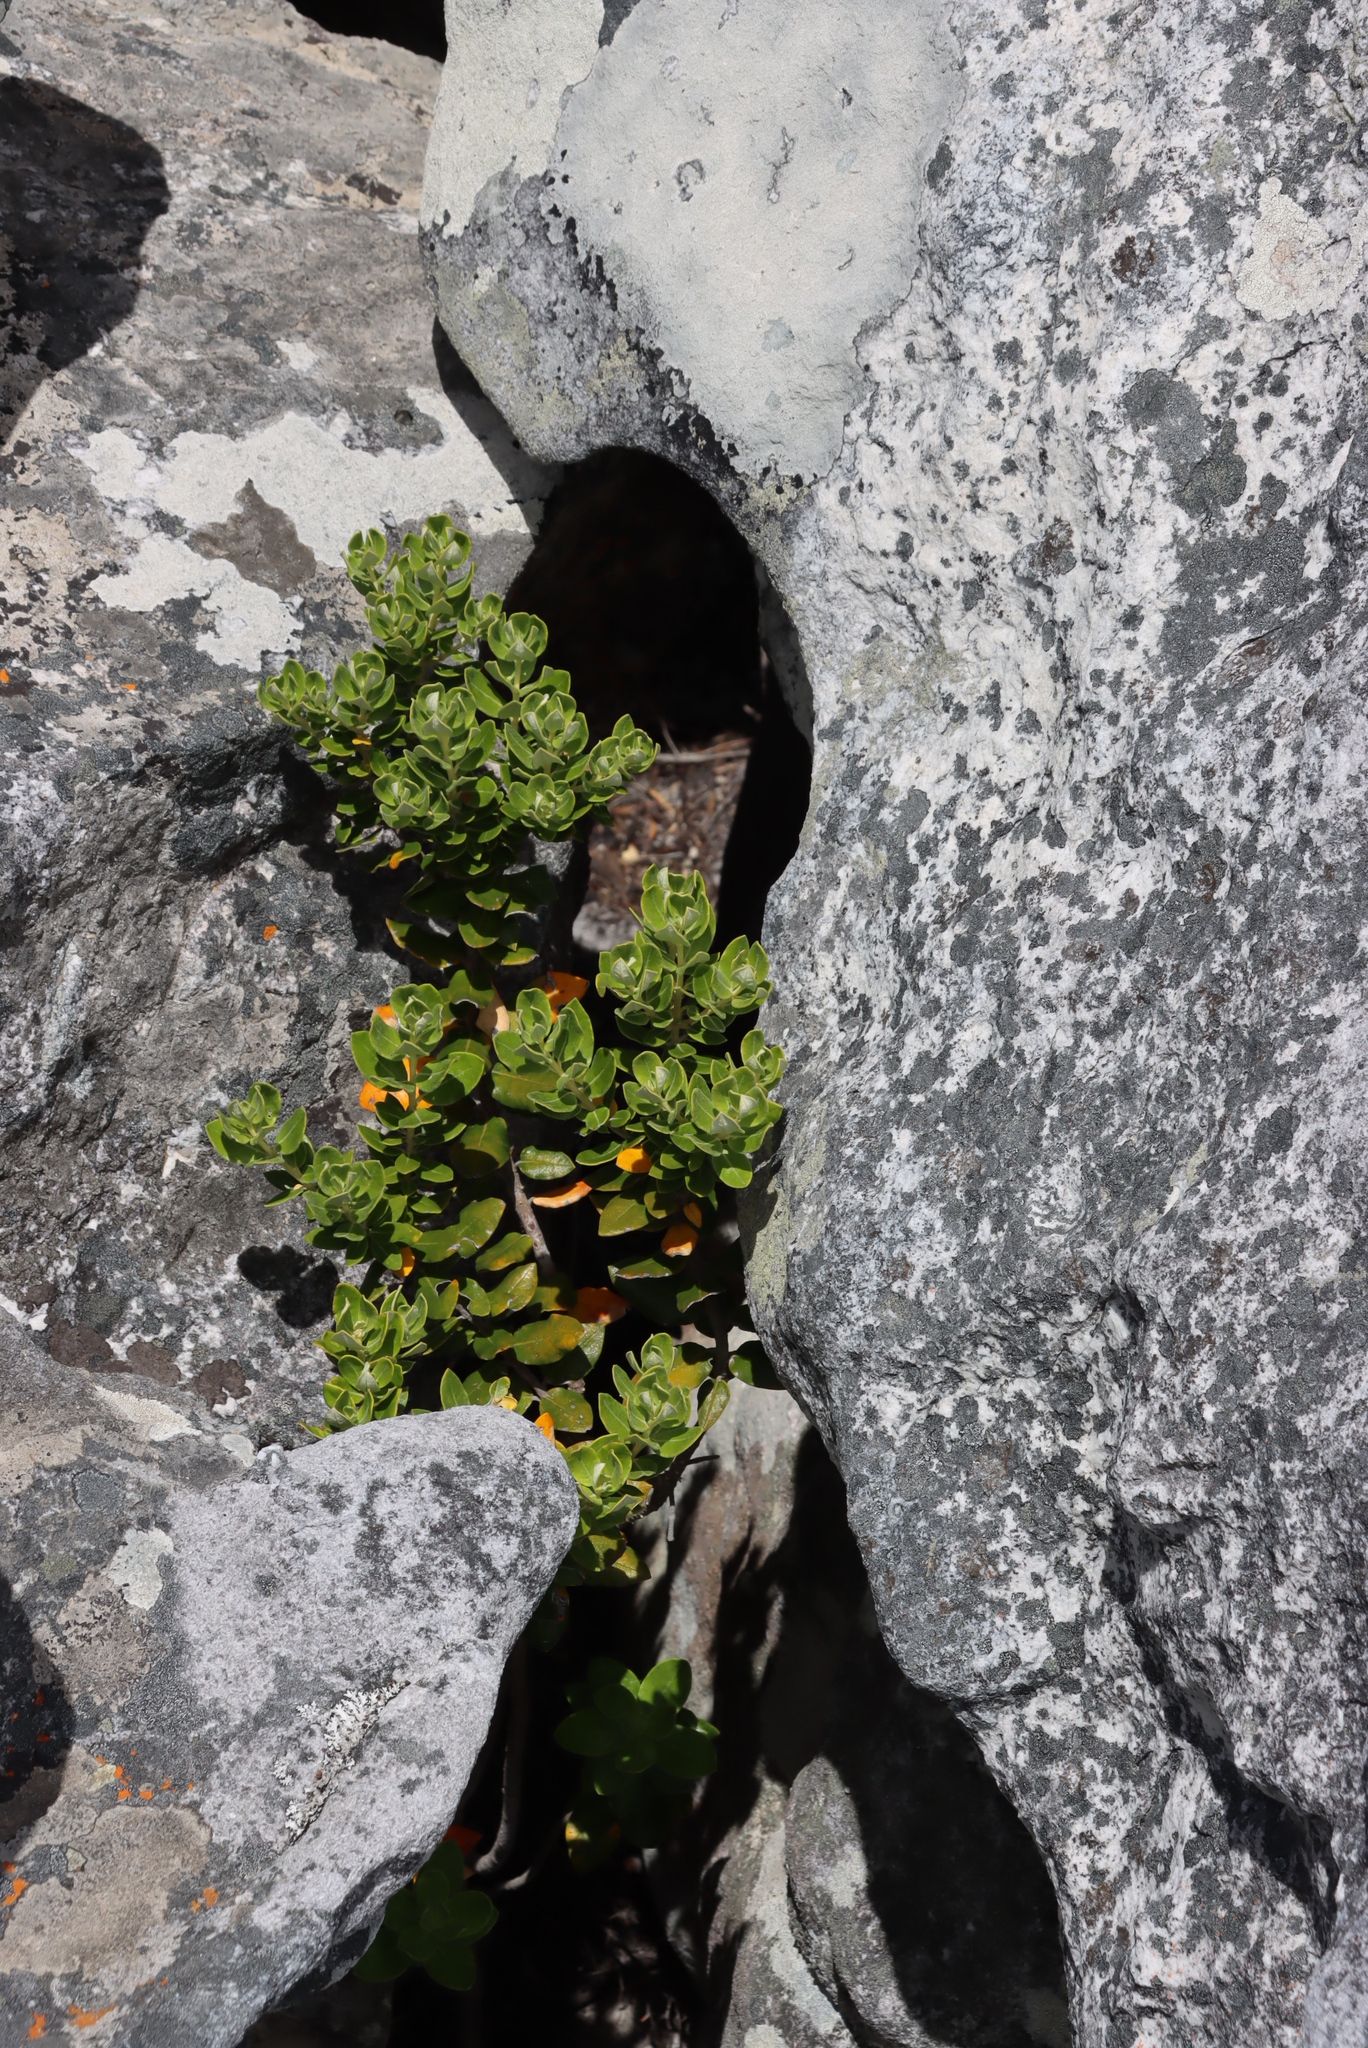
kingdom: Plantae
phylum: Tracheophyta
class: Magnoliopsida
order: Rosales
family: Rhamnaceae
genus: Phylica
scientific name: Phylica buxifolia
